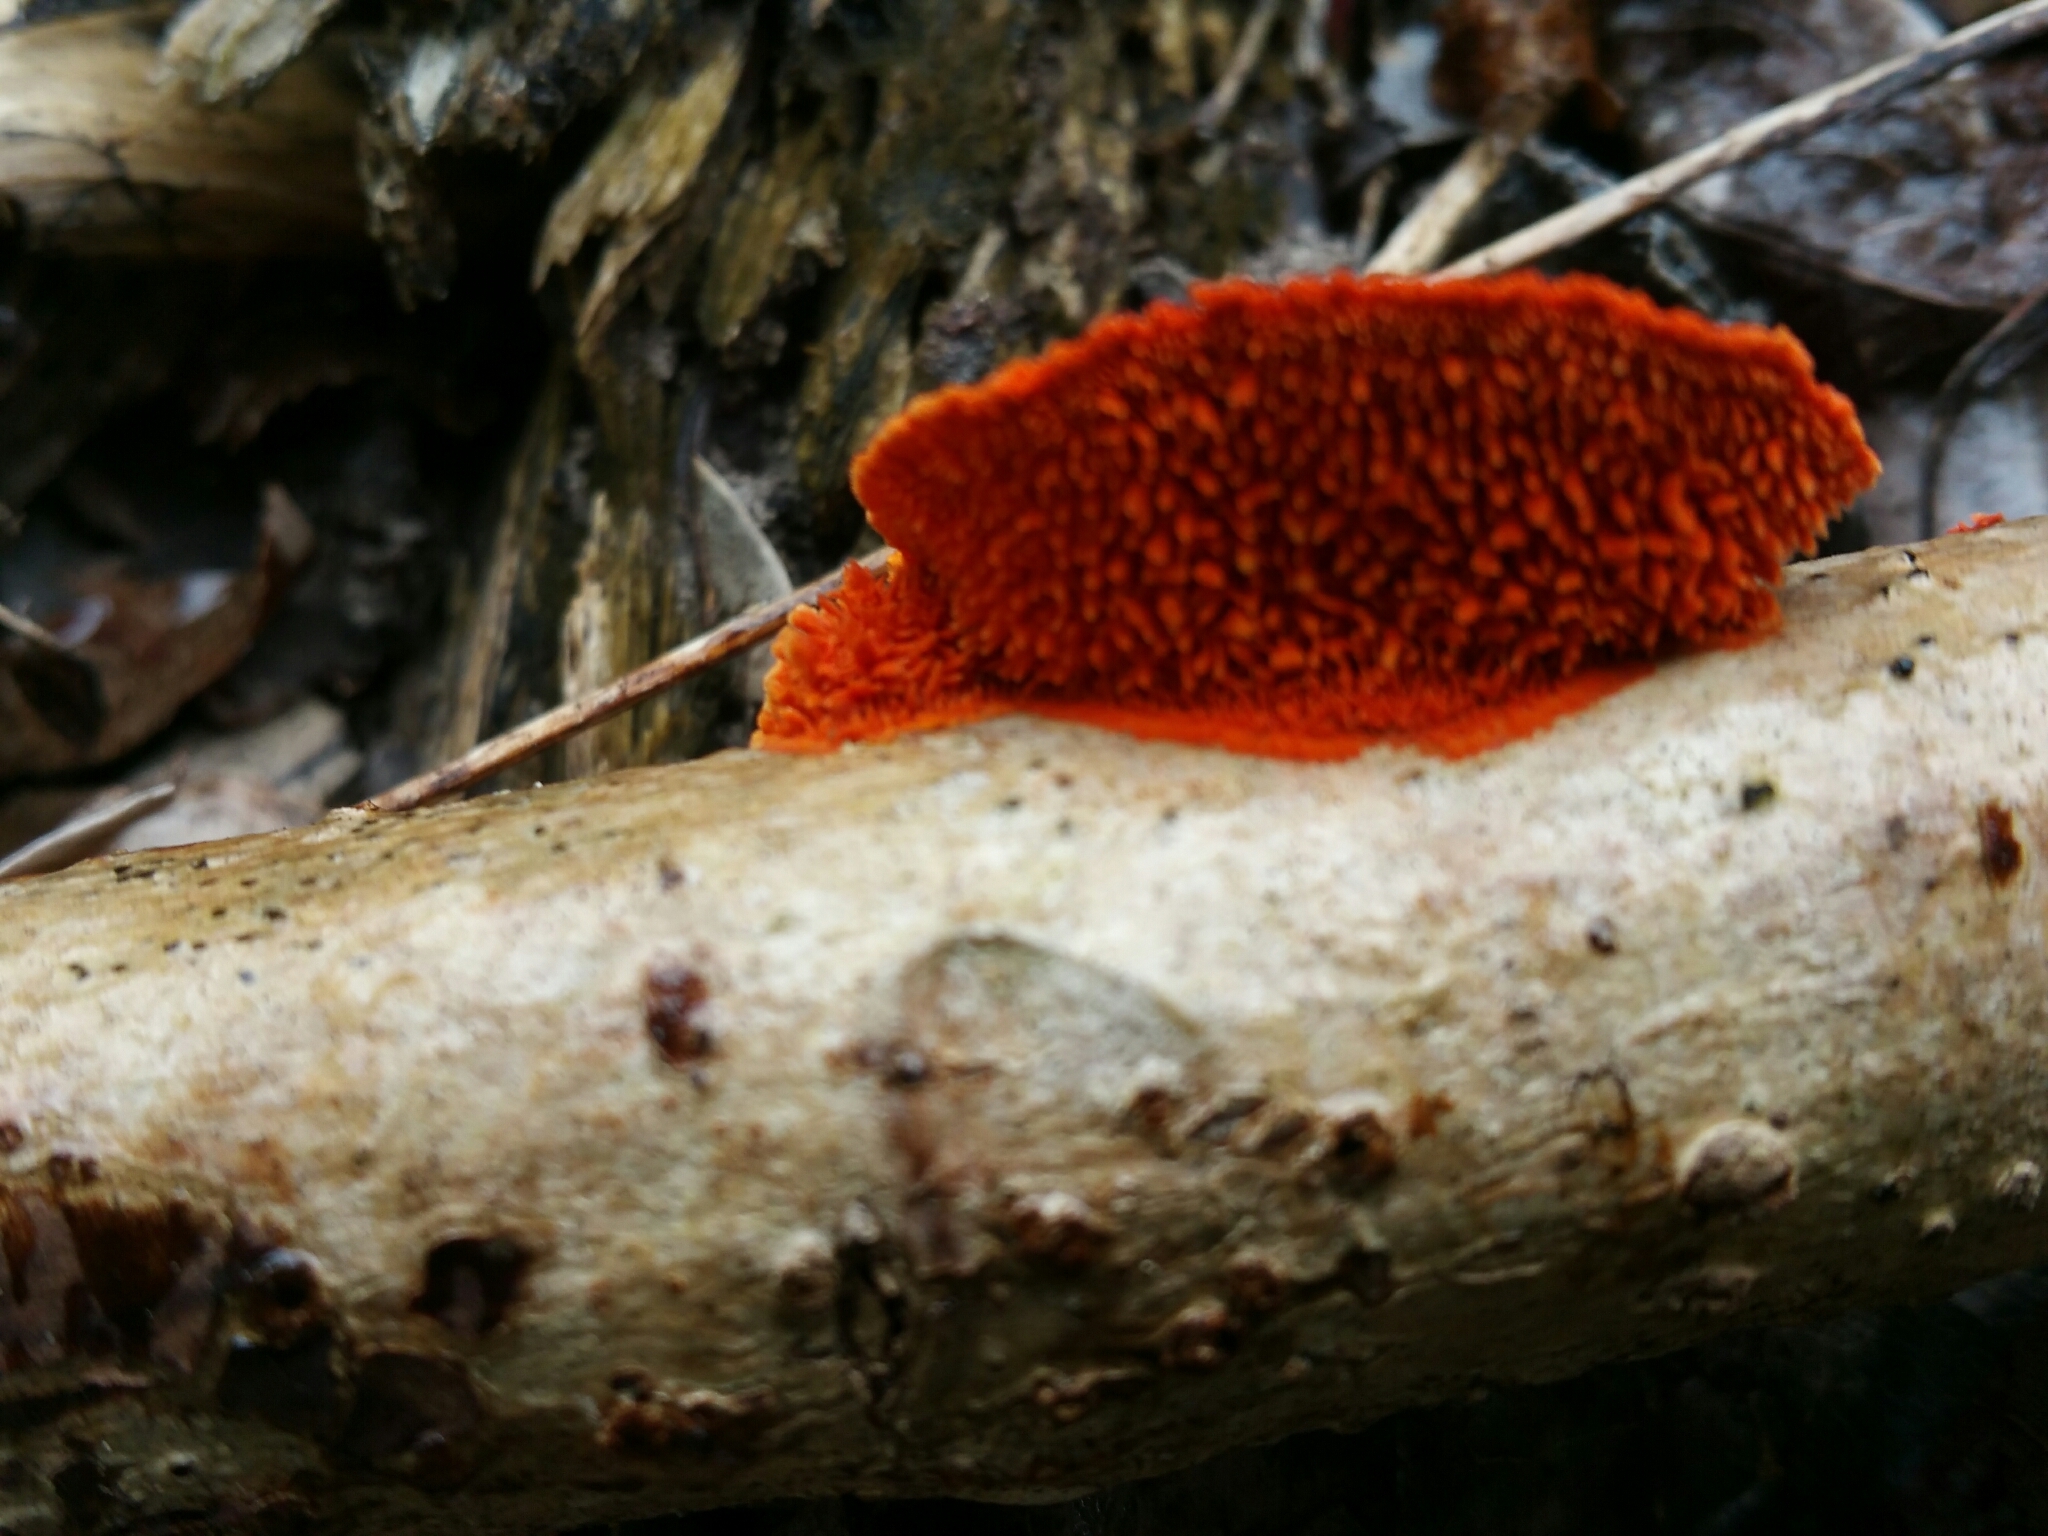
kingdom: Fungi
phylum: Basidiomycota
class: Agaricomycetes
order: Polyporales
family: Polyporaceae
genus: Trametes
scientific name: Trametes coccinea
